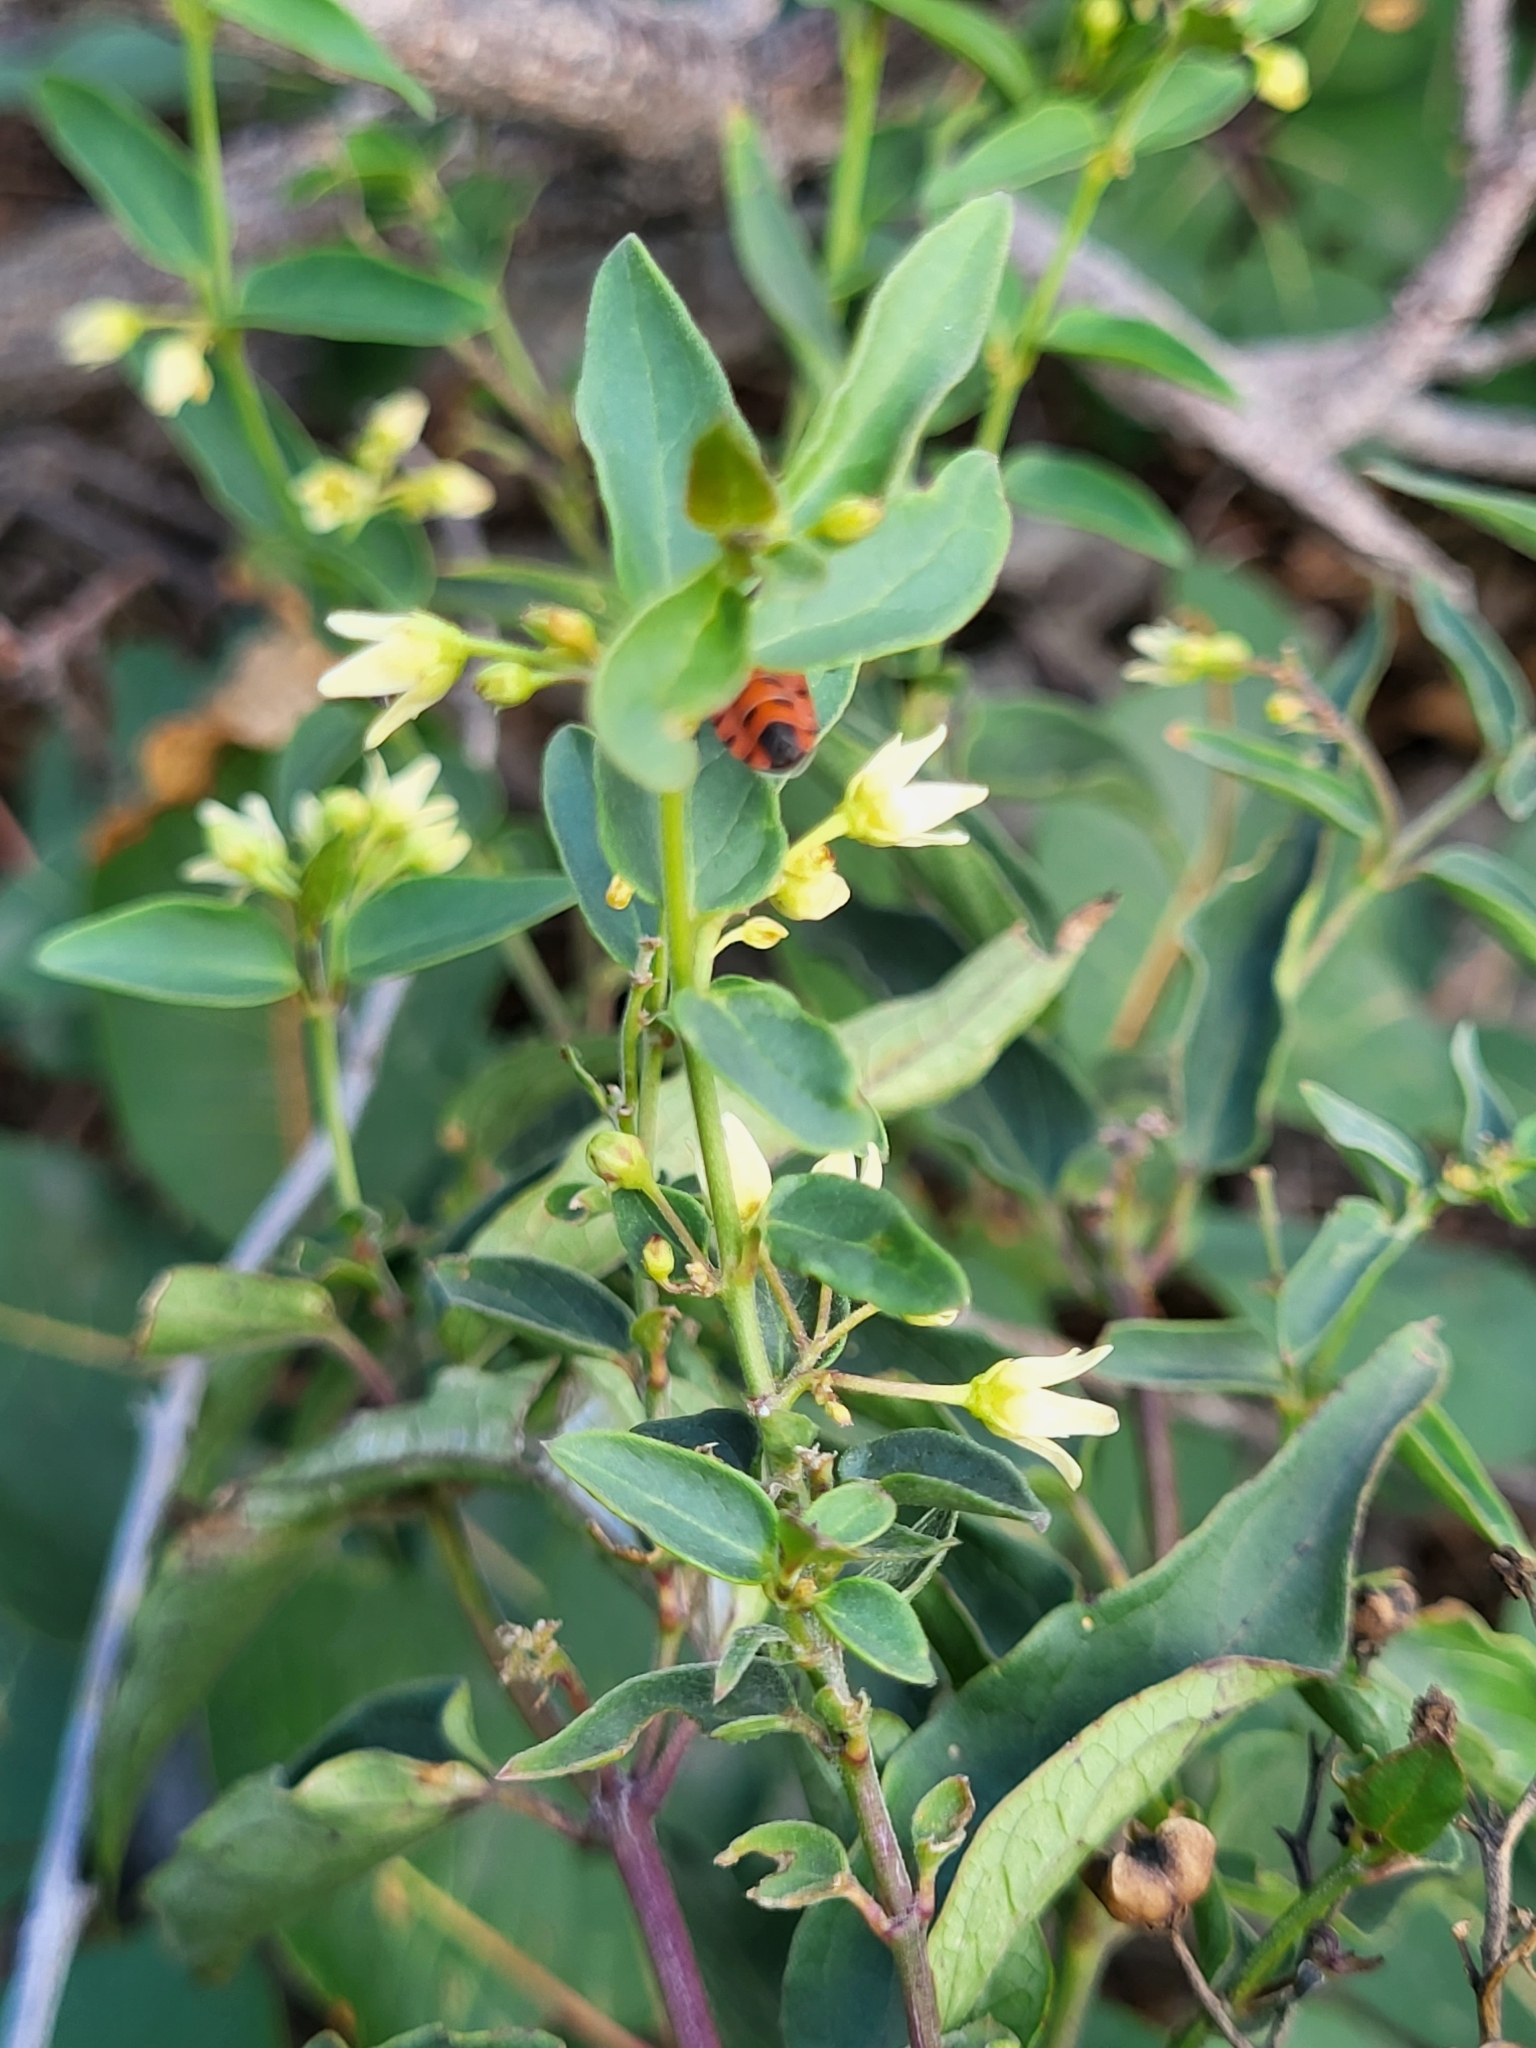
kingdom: Plantae
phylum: Tracheophyta
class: Magnoliopsida
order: Gentianales
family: Apocynaceae
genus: Vincetoxicum
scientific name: Vincetoxicum hirundinaria
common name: White swallowwort
